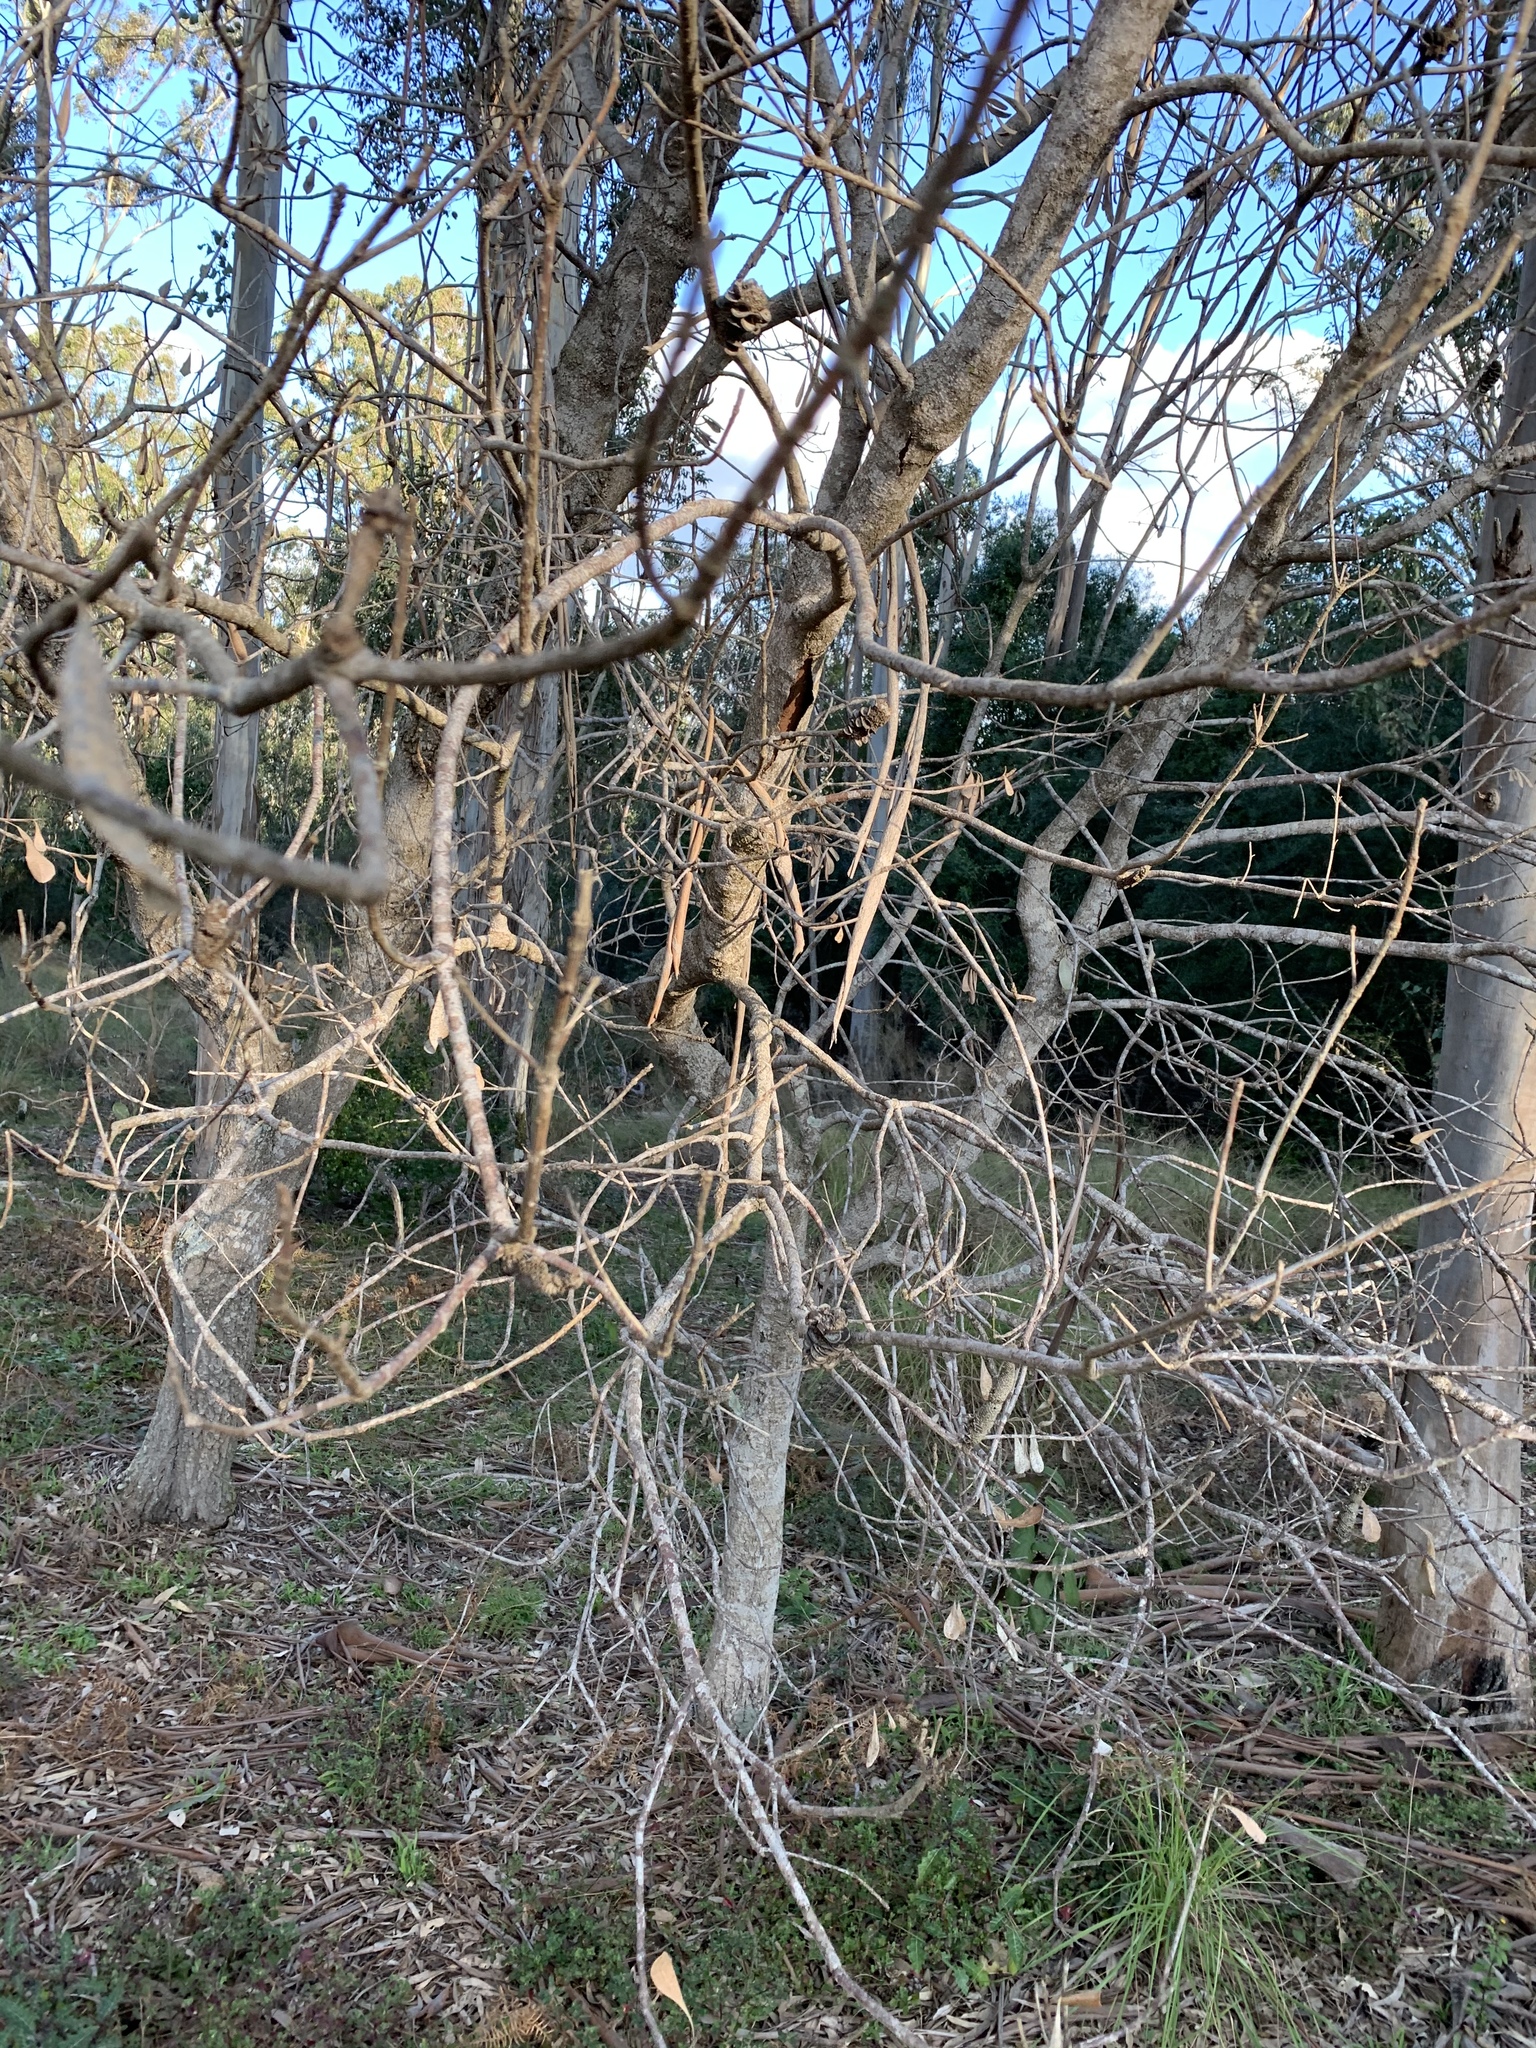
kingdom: Plantae
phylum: Tracheophyta
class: Magnoliopsida
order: Proteales
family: Proteaceae
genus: Banksia
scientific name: Banksia integrifolia
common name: White-honeysuckle
